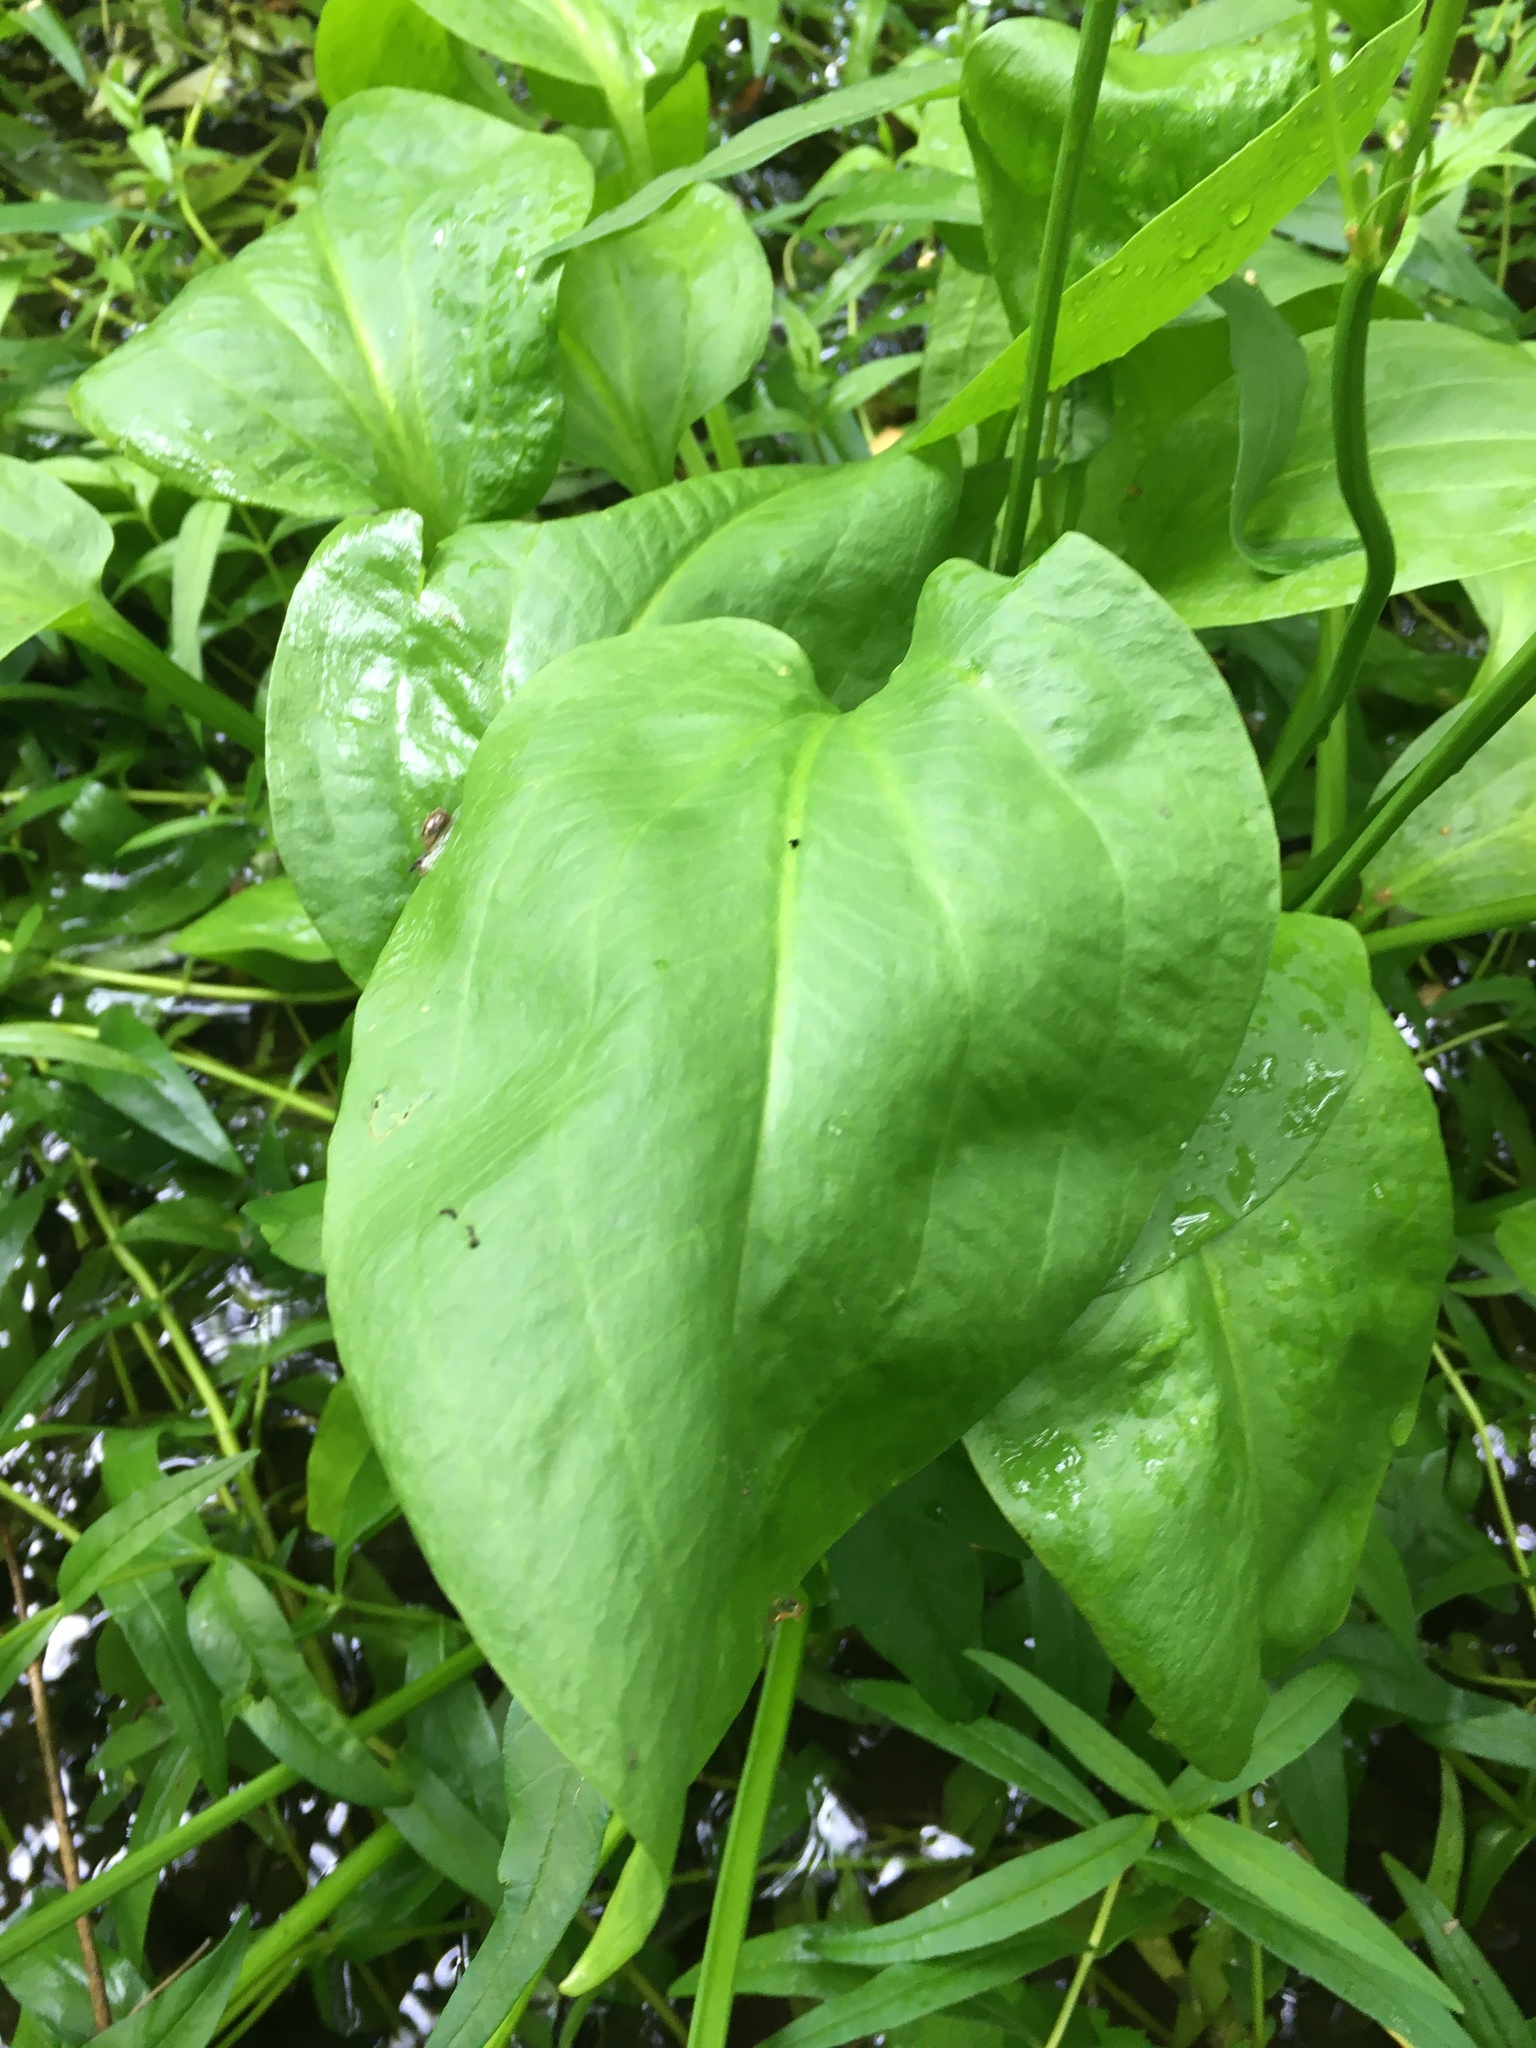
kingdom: Plantae
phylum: Tracheophyta
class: Liliopsida
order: Alismatales
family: Alismataceae
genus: Alisma
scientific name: Alisma plantago-aquatica
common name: Water-plantain
